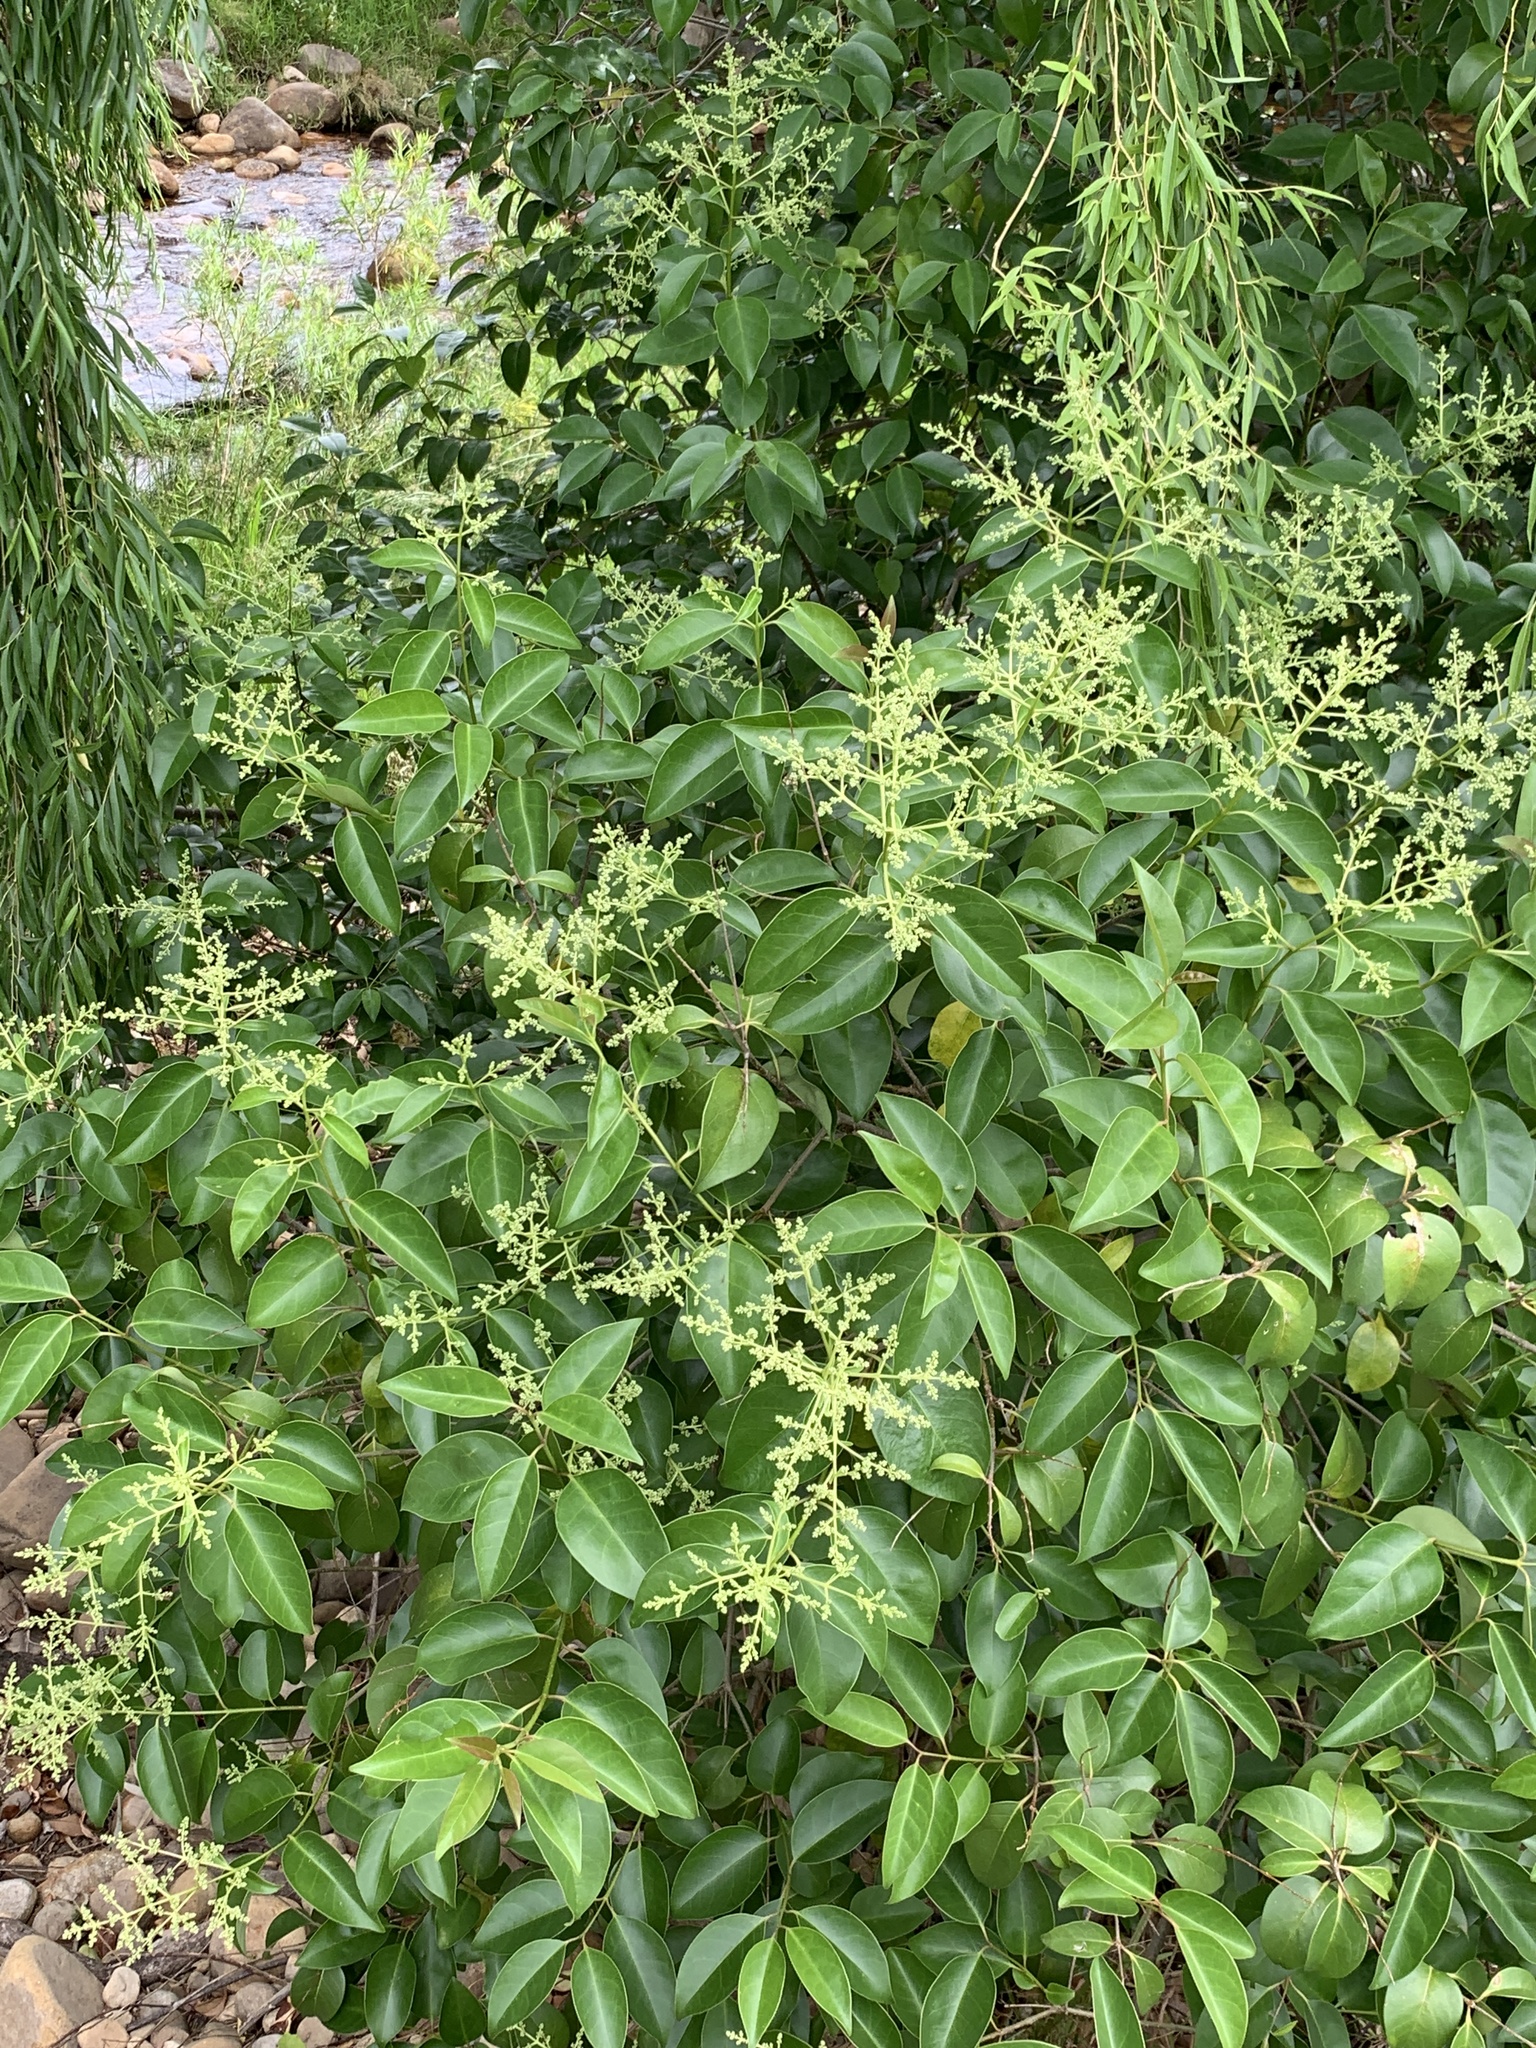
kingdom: Plantae
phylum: Tracheophyta
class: Magnoliopsida
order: Lamiales
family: Oleaceae
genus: Ligustrum
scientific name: Ligustrum lucidum
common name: Glossy privet
